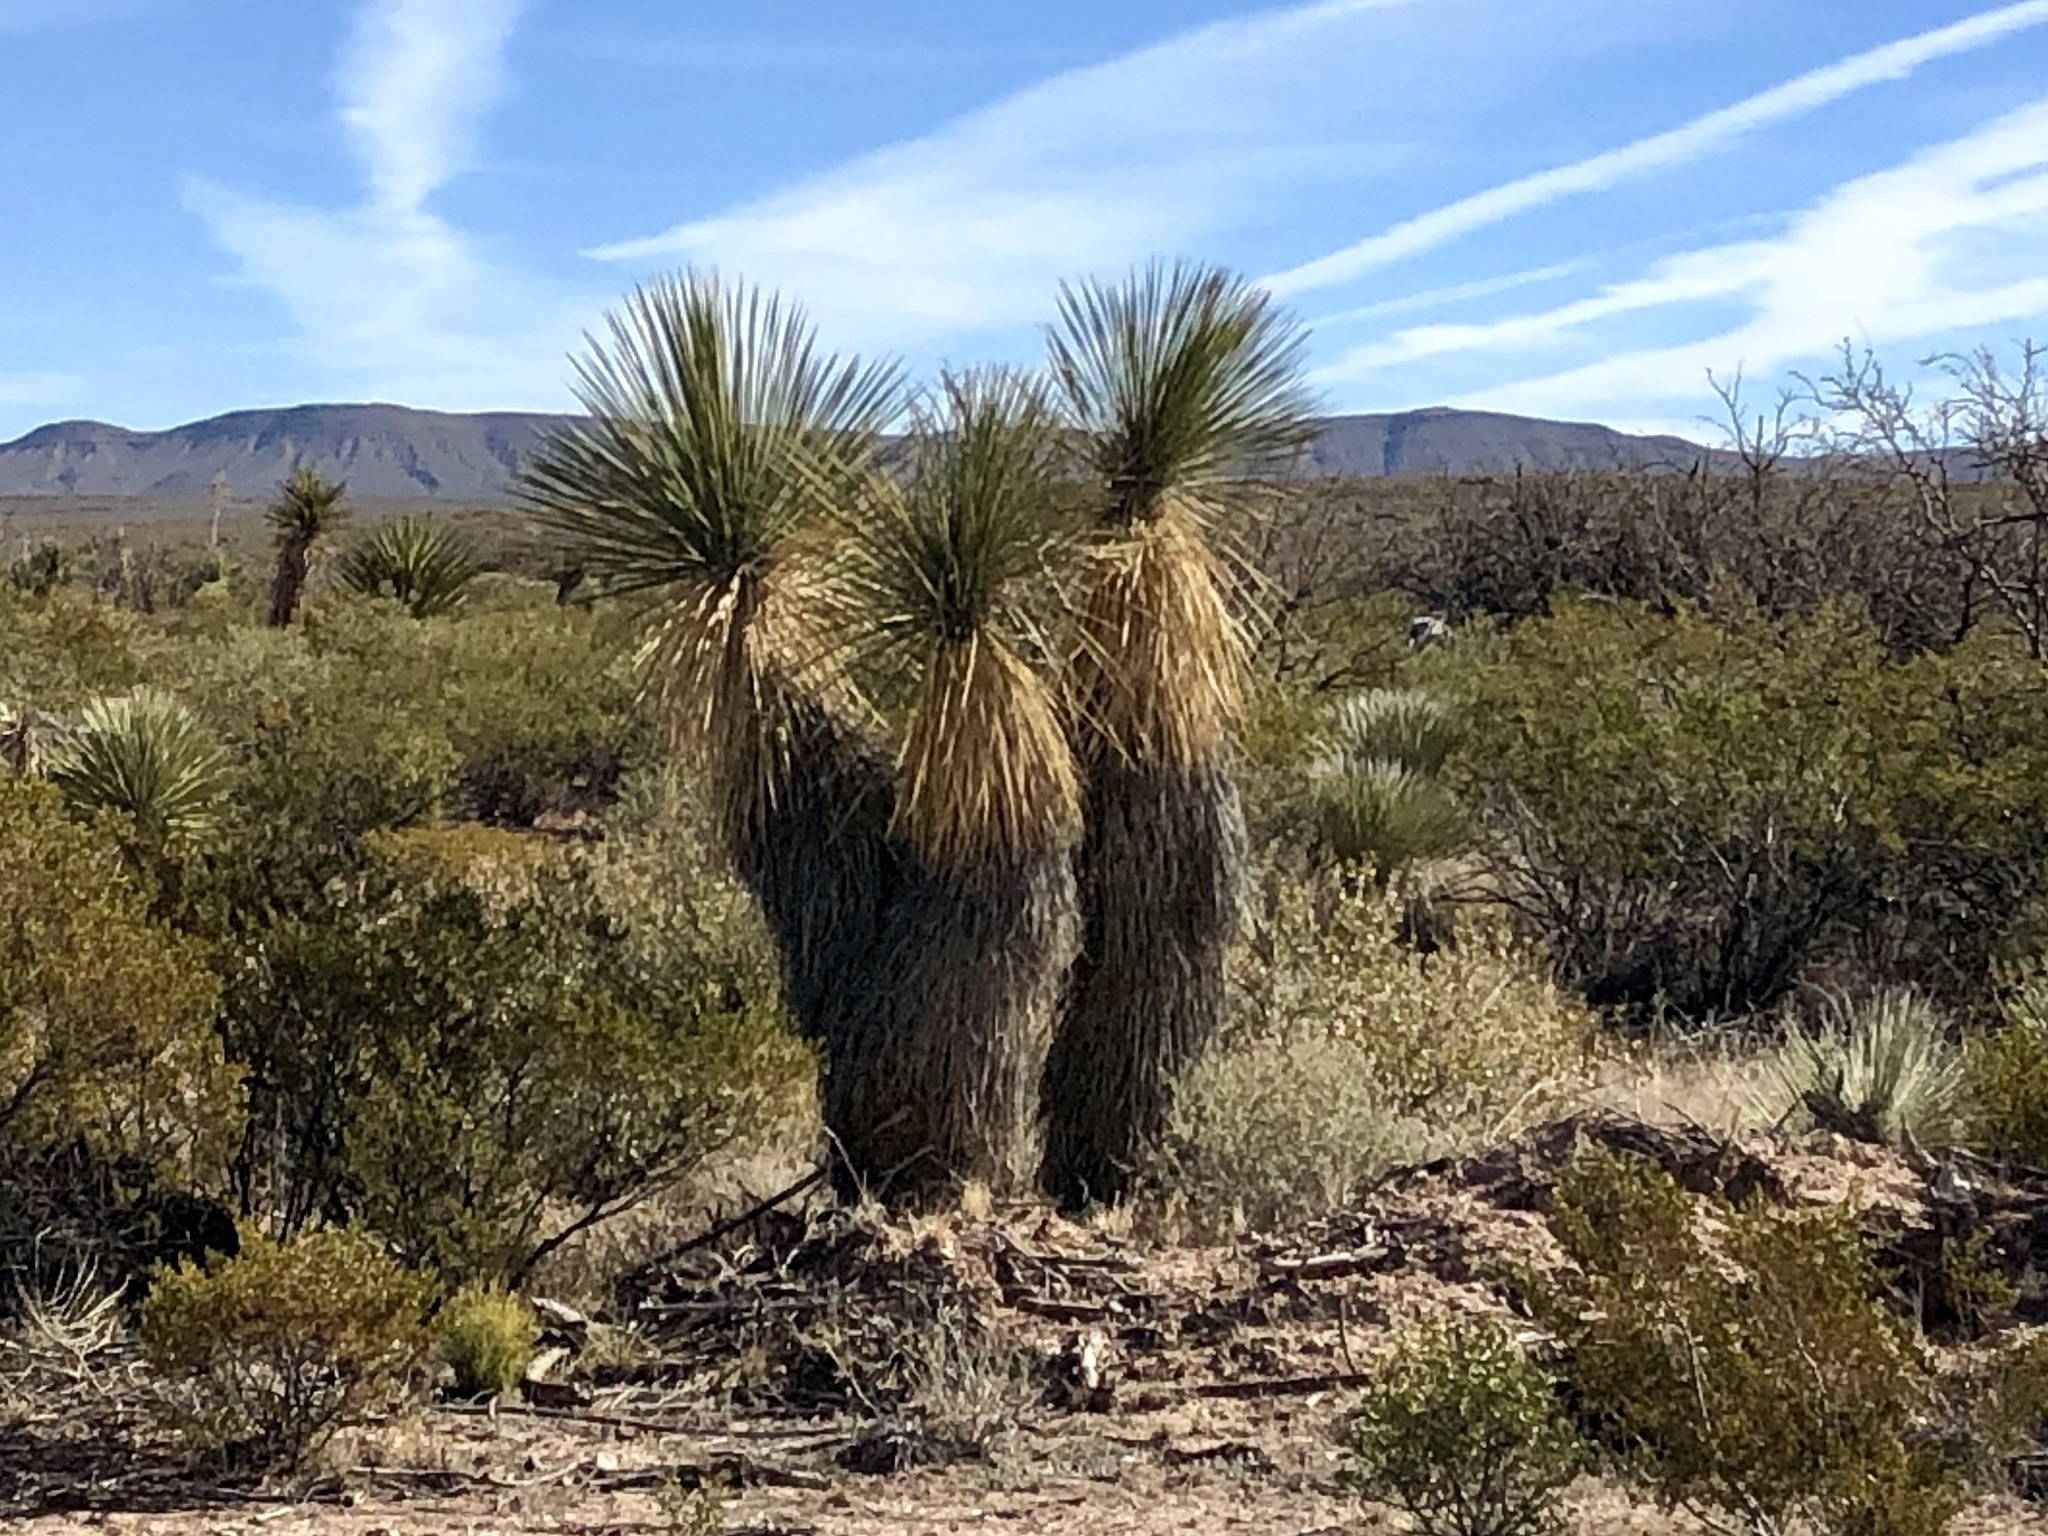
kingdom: Plantae
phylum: Tracheophyta
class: Liliopsida
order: Asparagales
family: Asparagaceae
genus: Yucca
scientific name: Yucca elata
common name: Palmella
